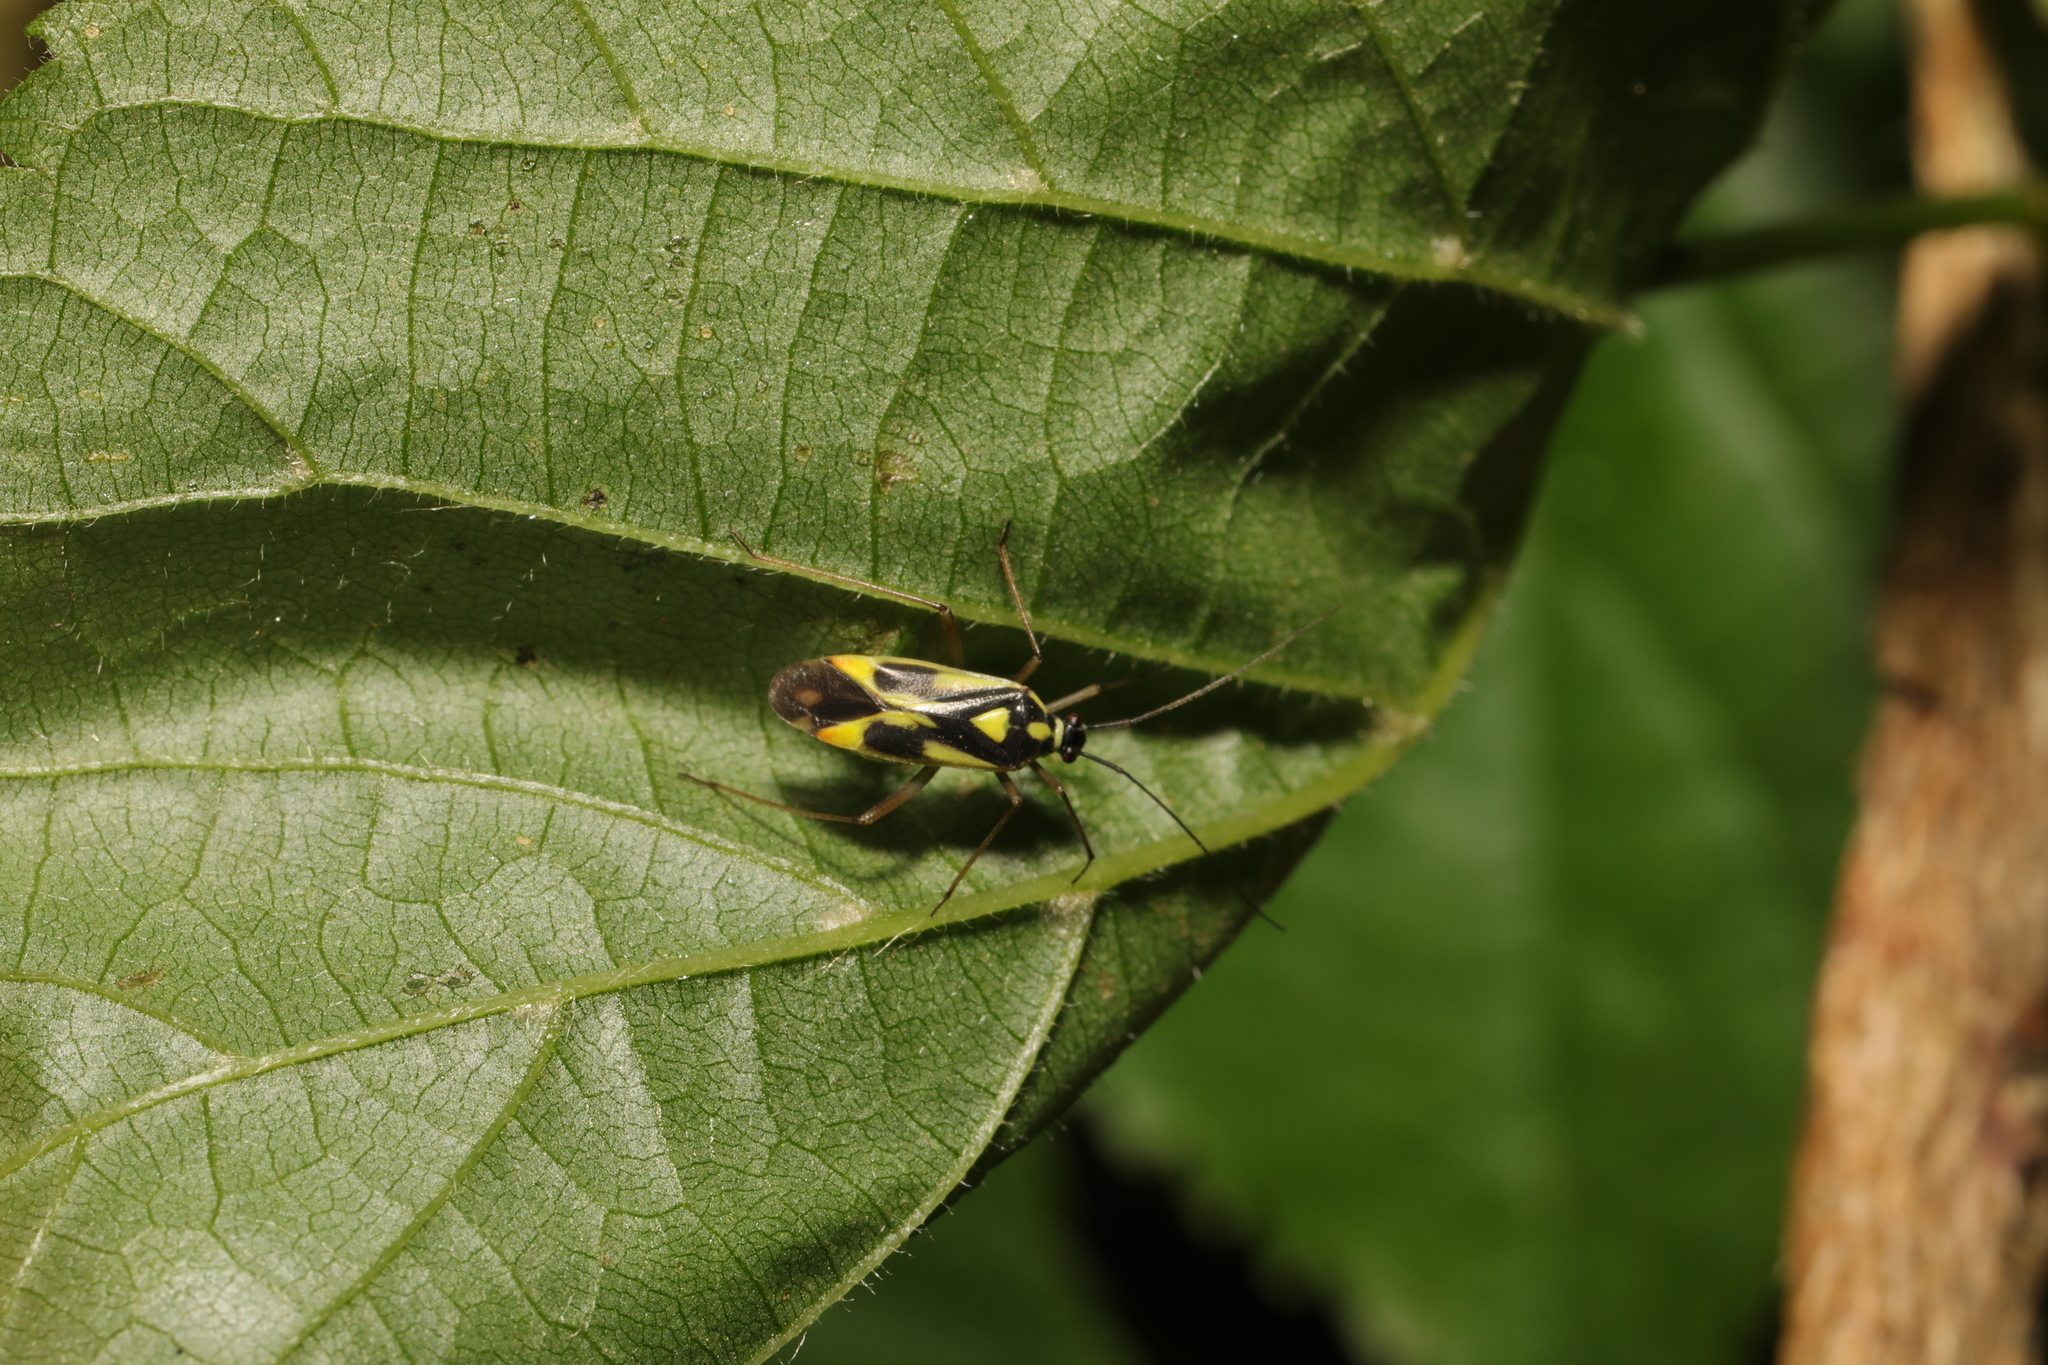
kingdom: Animalia
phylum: Arthropoda
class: Insecta
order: Hemiptera
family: Miridae
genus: Grypocoris
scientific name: Grypocoris stysi
